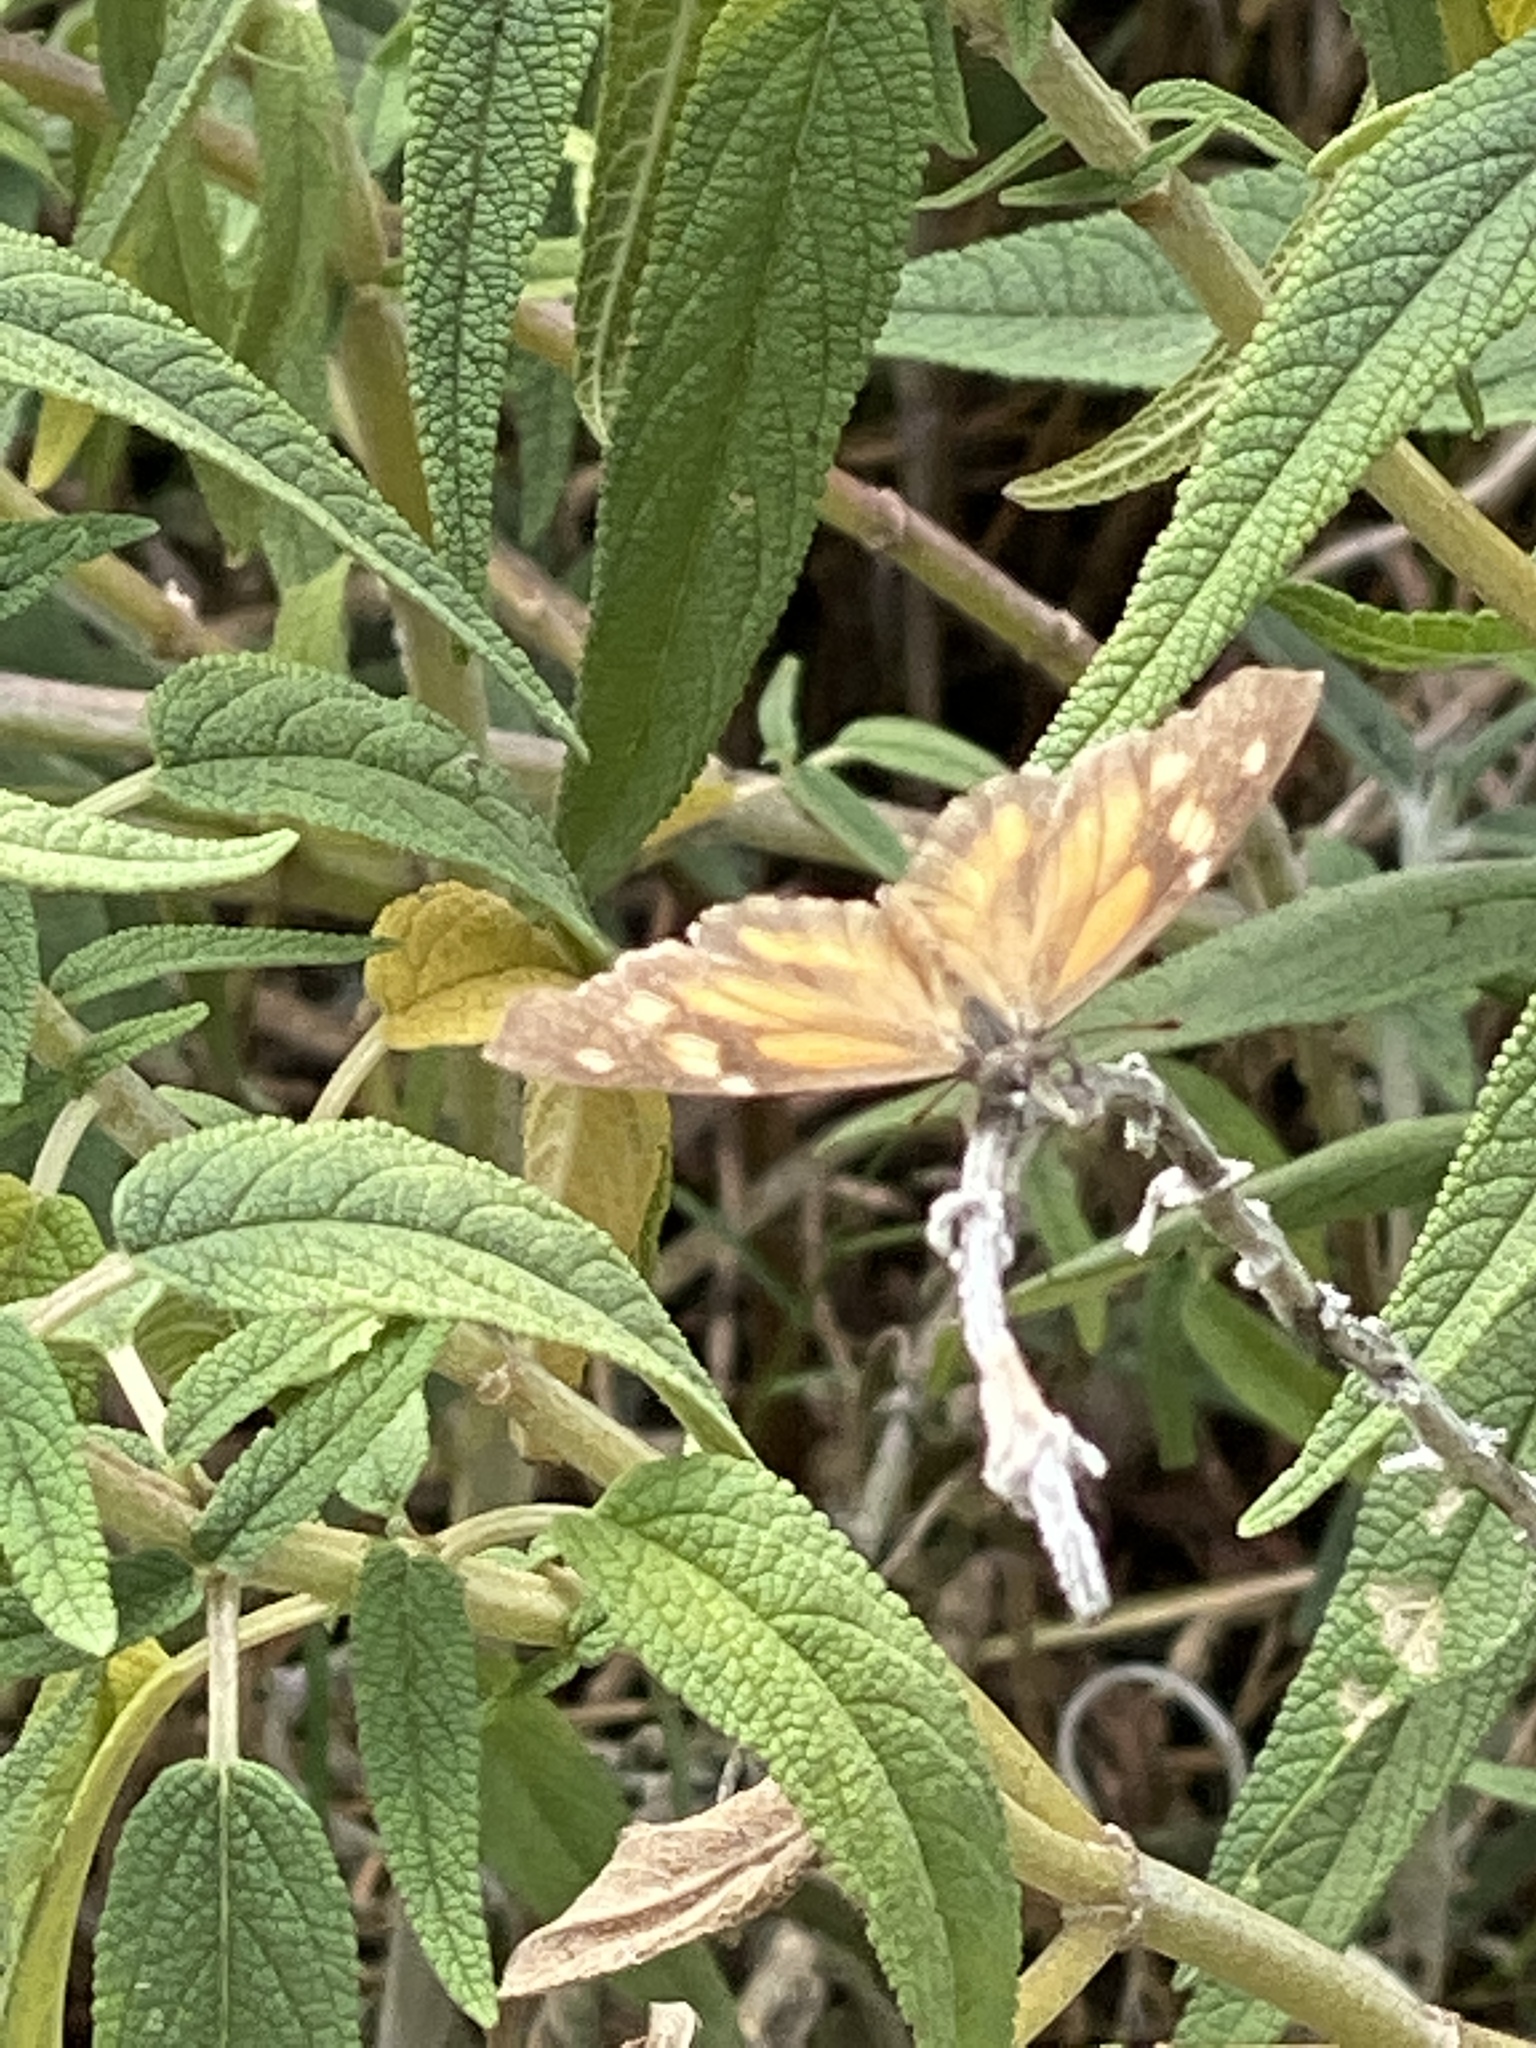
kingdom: Animalia
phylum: Arthropoda
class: Insecta
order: Lepidoptera
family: Nymphalidae
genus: Libytheana
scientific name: Libytheana carinenta
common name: American snout
